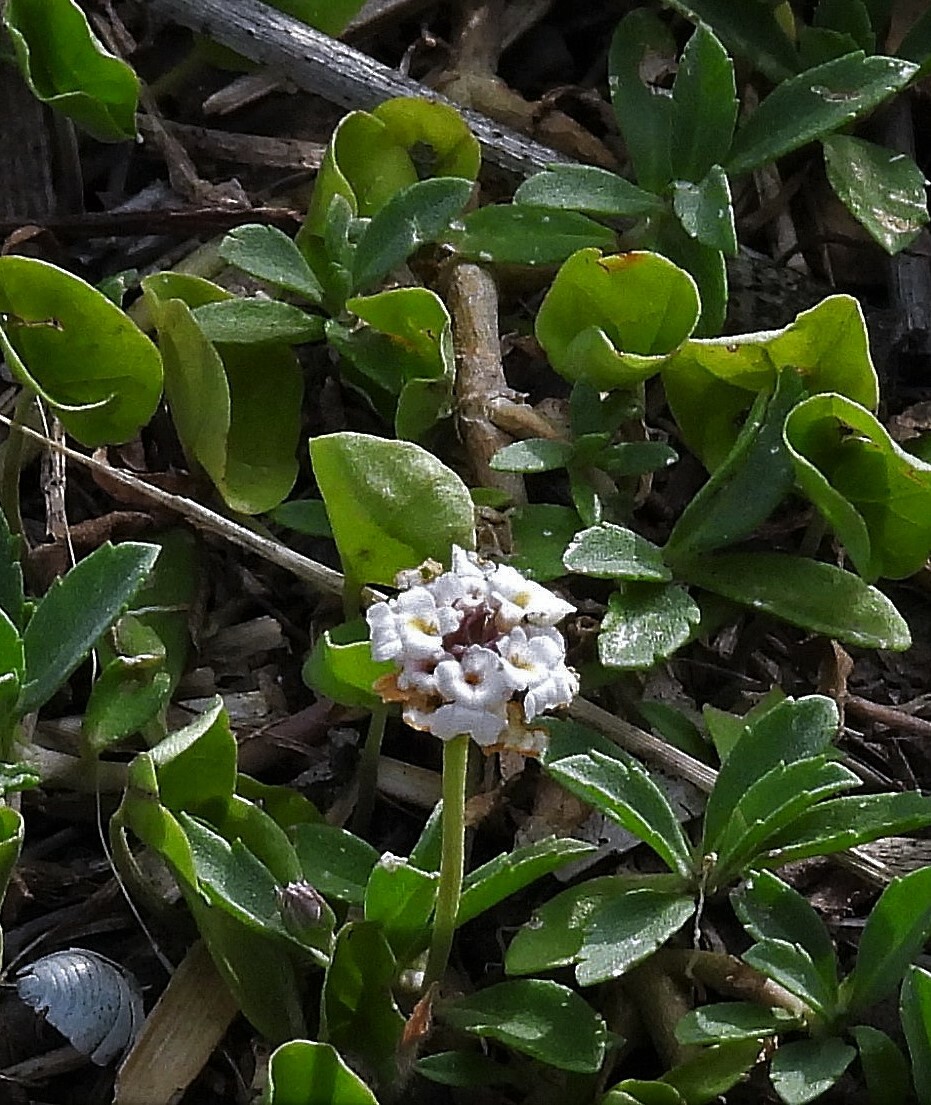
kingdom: Plantae
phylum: Tracheophyta
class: Magnoliopsida
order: Lamiales
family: Verbenaceae
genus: Phyla
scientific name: Phyla nodiflora
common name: Frogfruit
